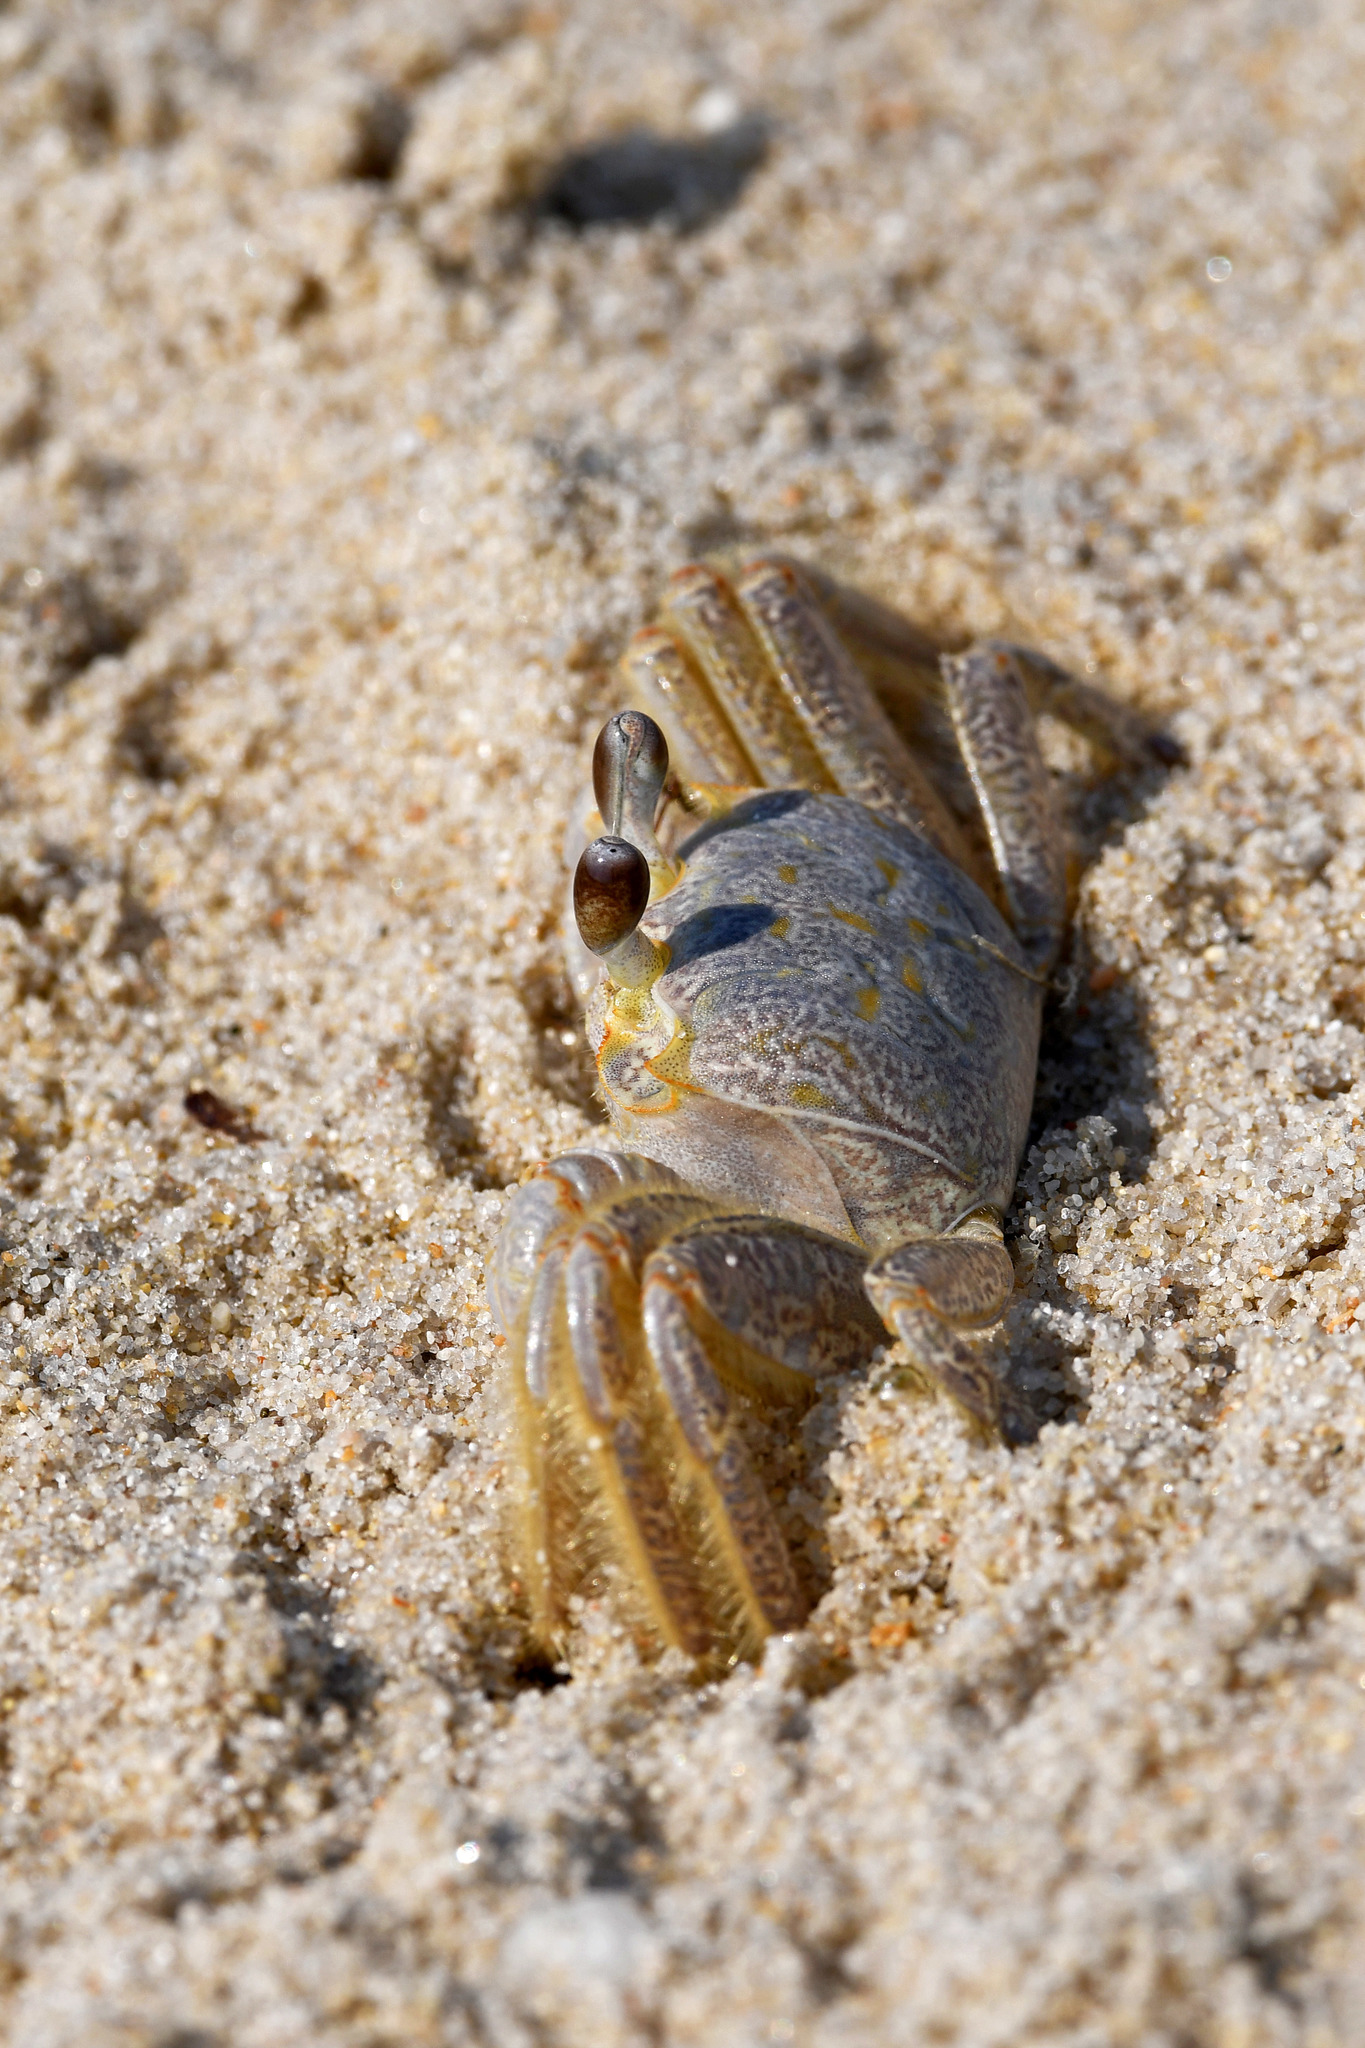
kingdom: Animalia
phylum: Arthropoda
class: Malacostraca
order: Decapoda
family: Ocypodidae
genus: Ocypode
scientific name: Ocypode quadrata
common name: Ghost crab
